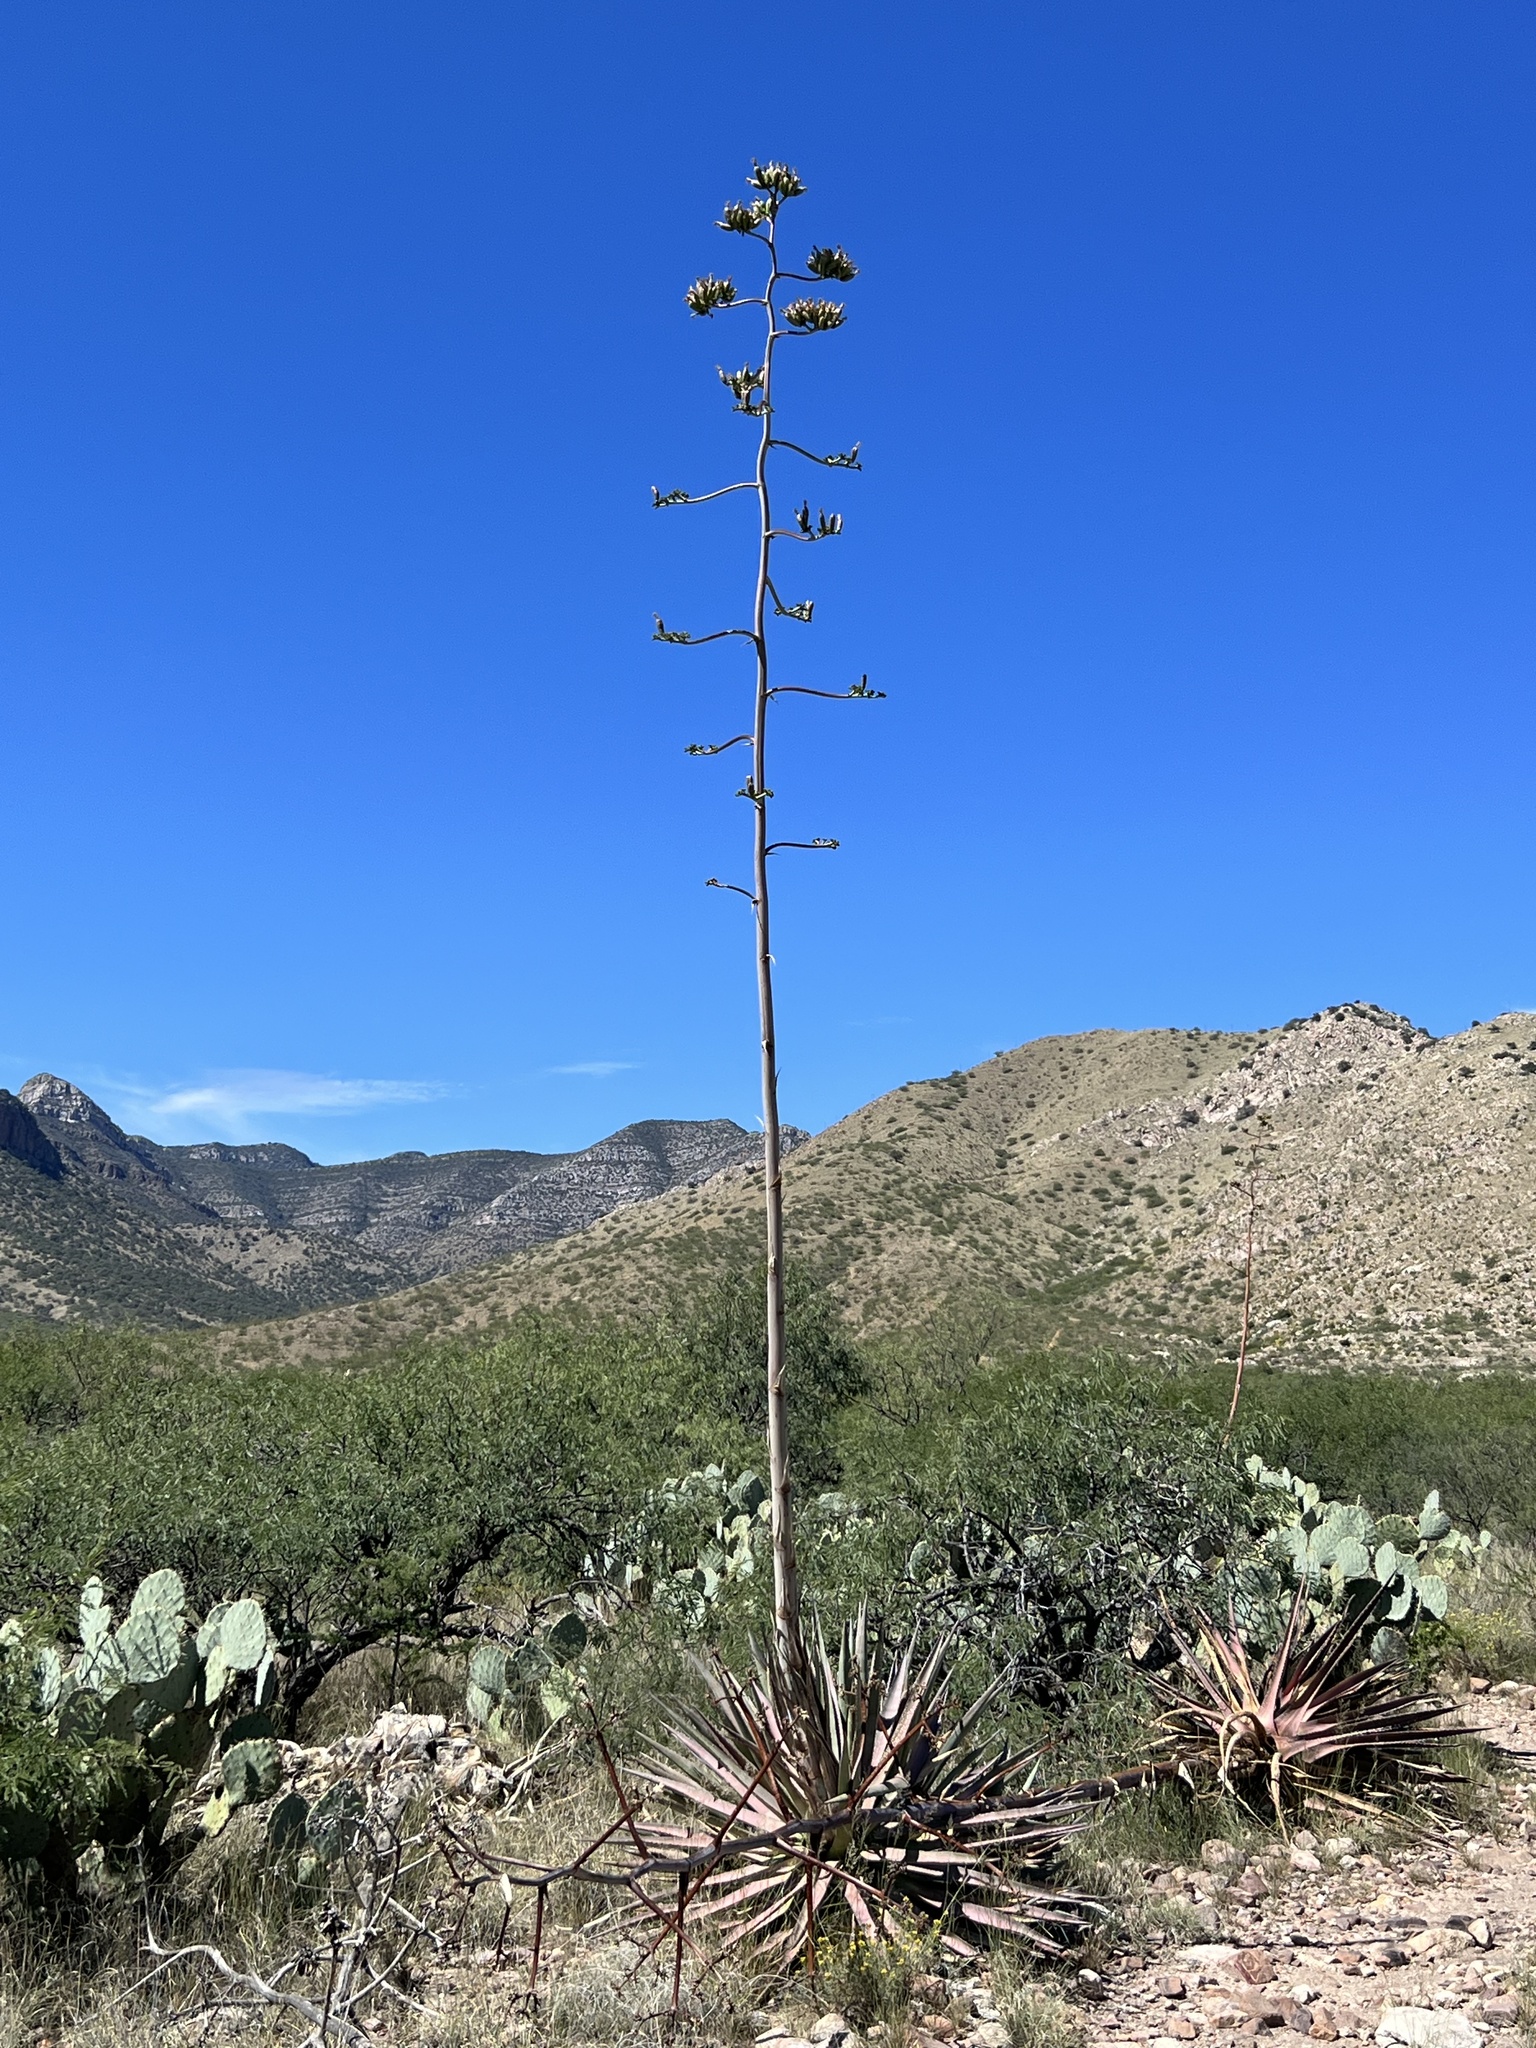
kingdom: Plantae
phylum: Tracheophyta
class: Liliopsida
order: Asparagales
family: Asparagaceae
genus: Agave
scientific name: Agave palmeri
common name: Palmer agave
